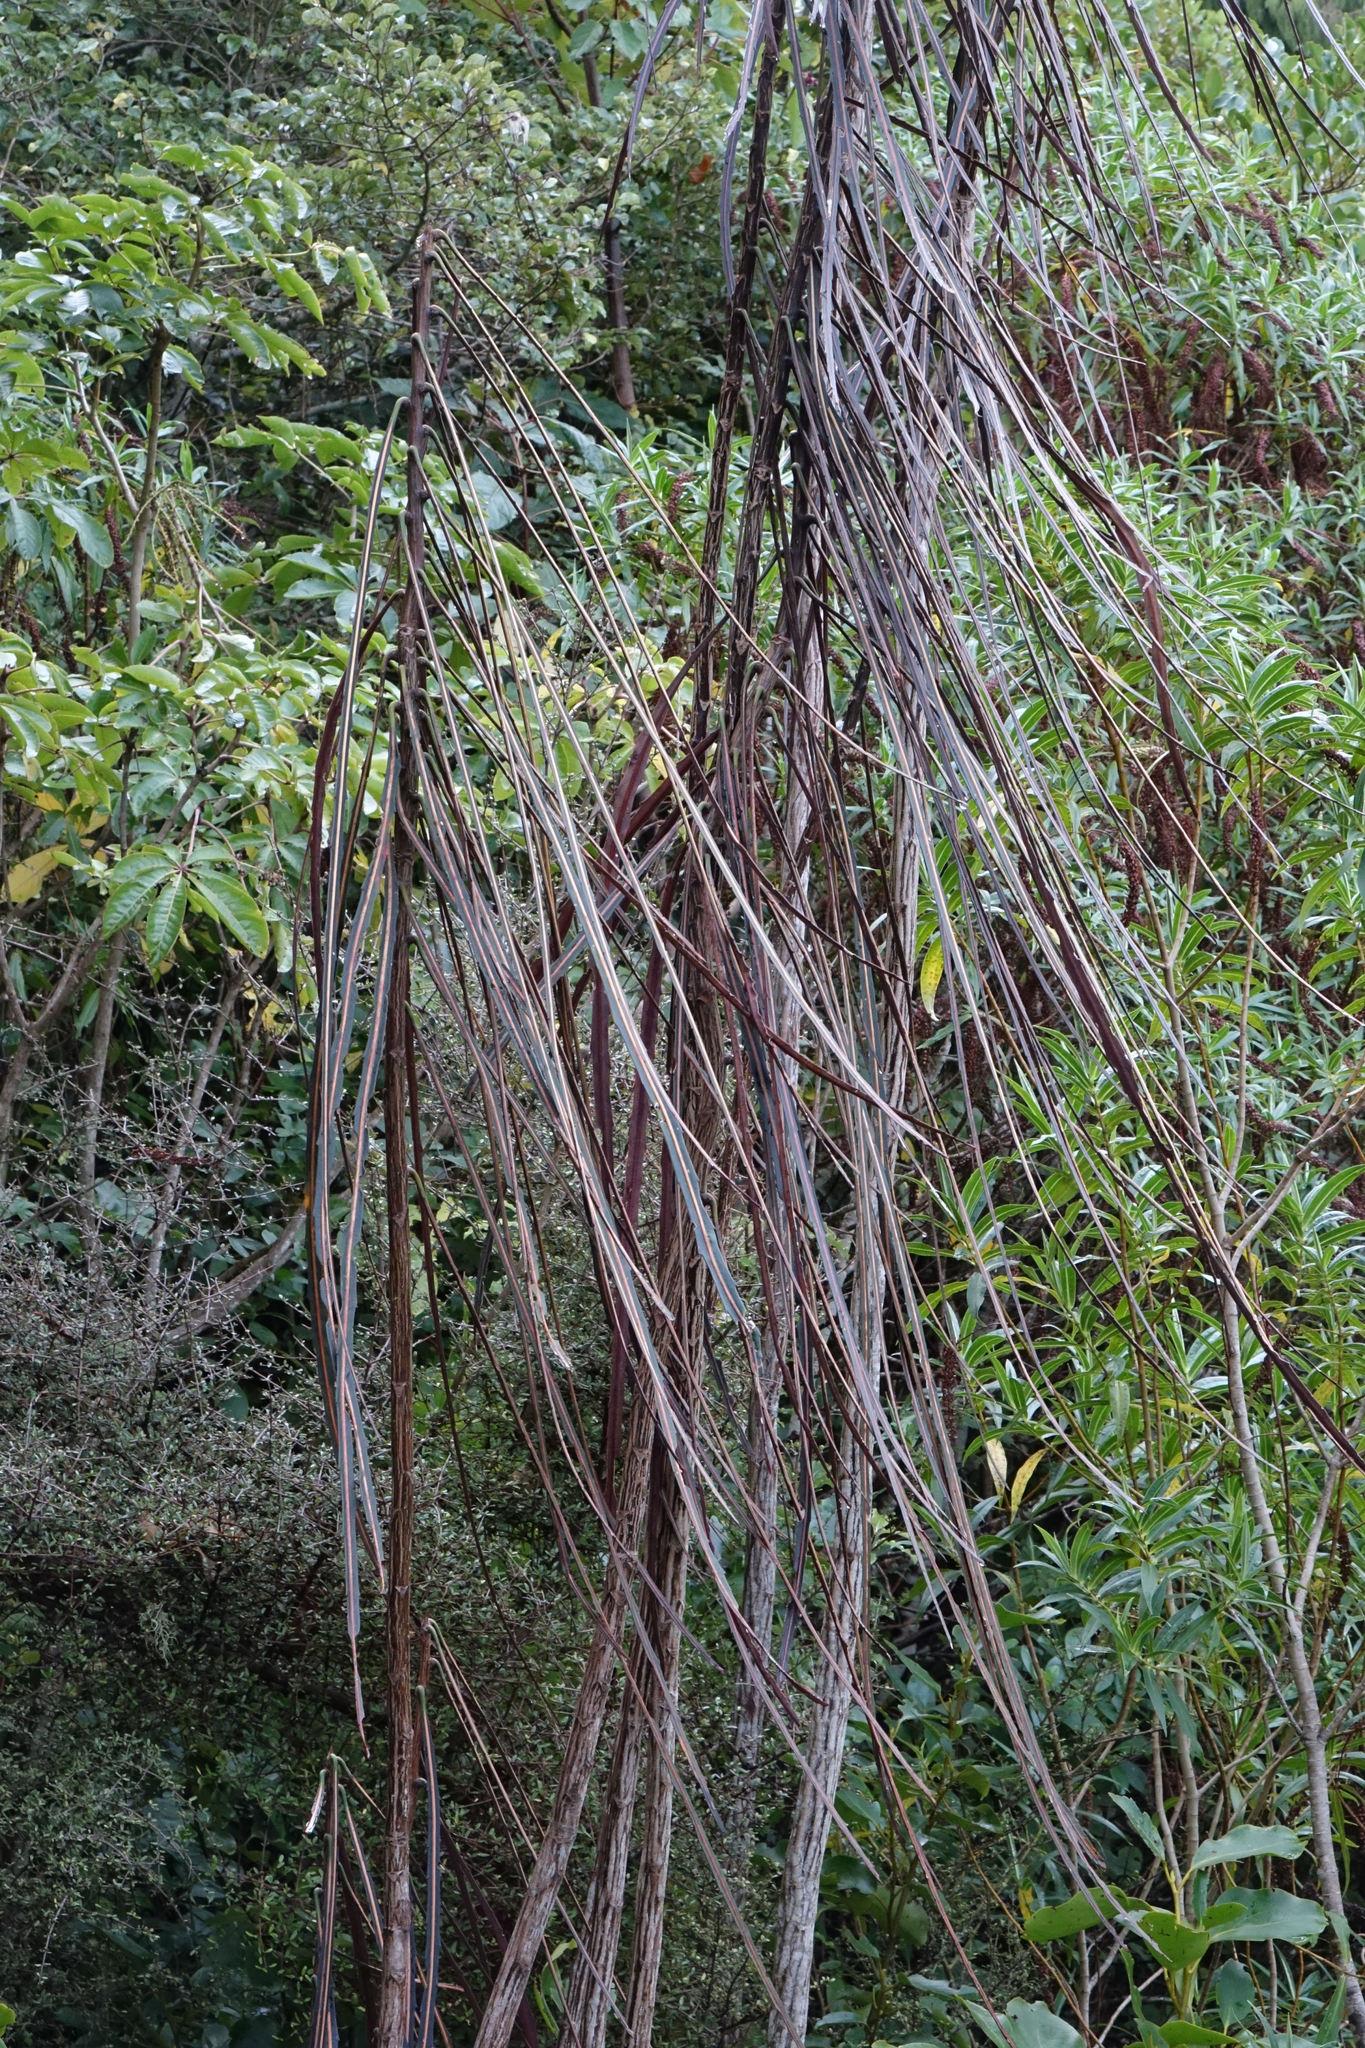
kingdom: Plantae
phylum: Tracheophyta
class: Magnoliopsida
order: Apiales
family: Araliaceae
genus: Pseudopanax
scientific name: Pseudopanax crassifolius
